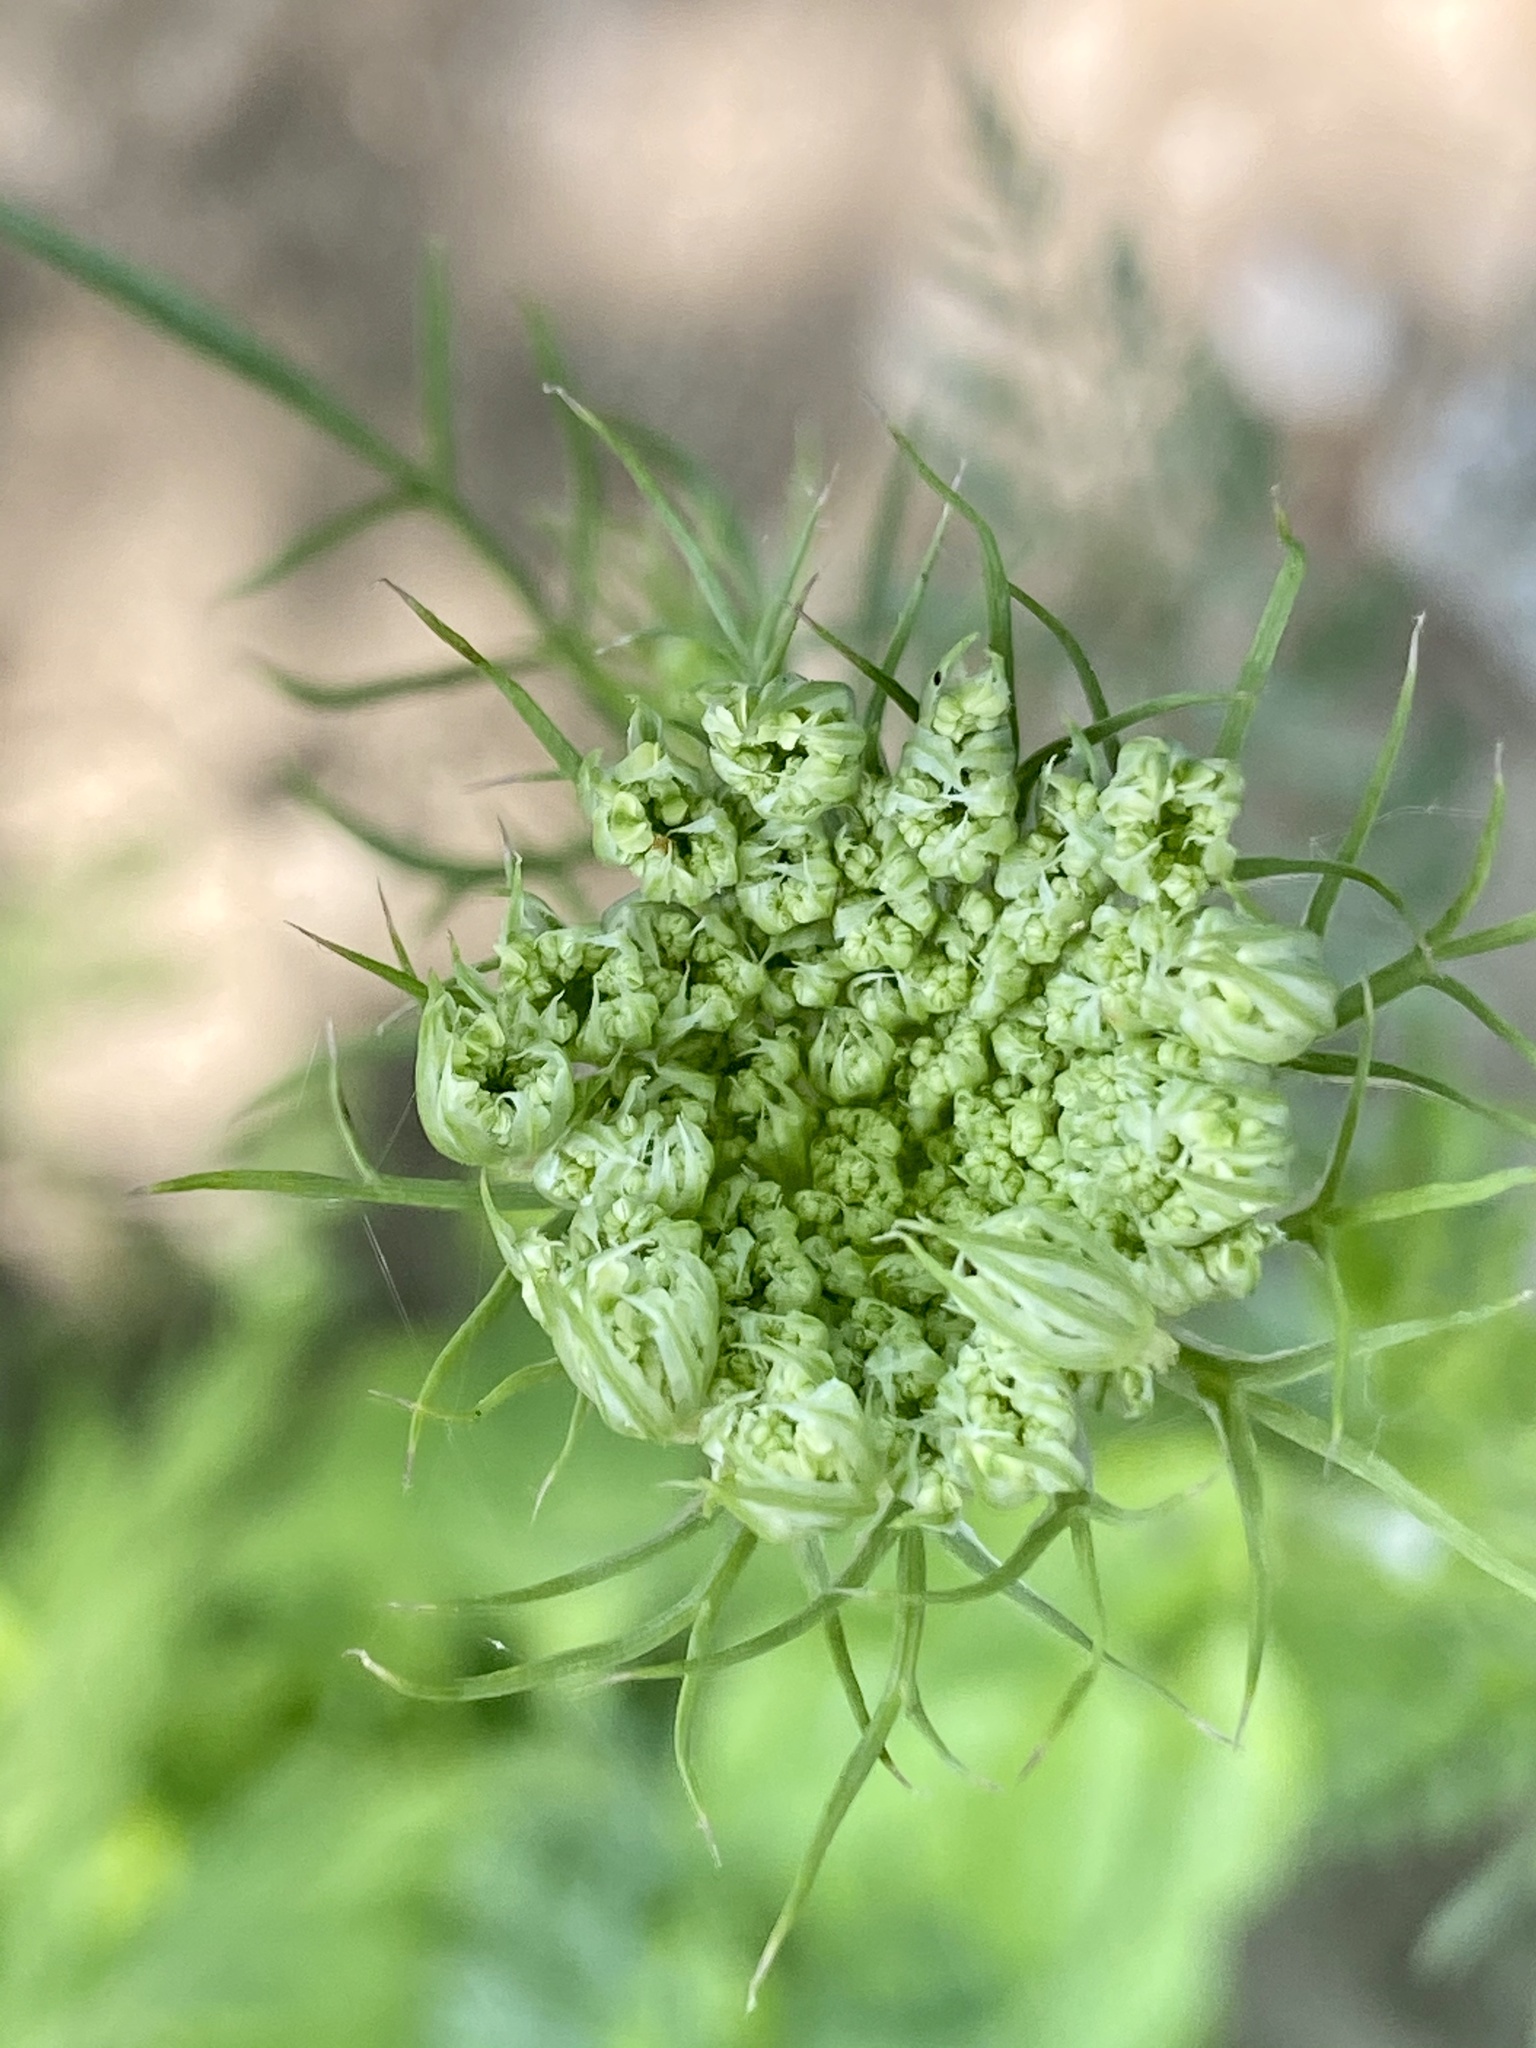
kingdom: Plantae
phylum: Tracheophyta
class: Magnoliopsida
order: Apiales
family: Apiaceae
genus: Daucus
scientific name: Daucus carota
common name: Wild carrot
